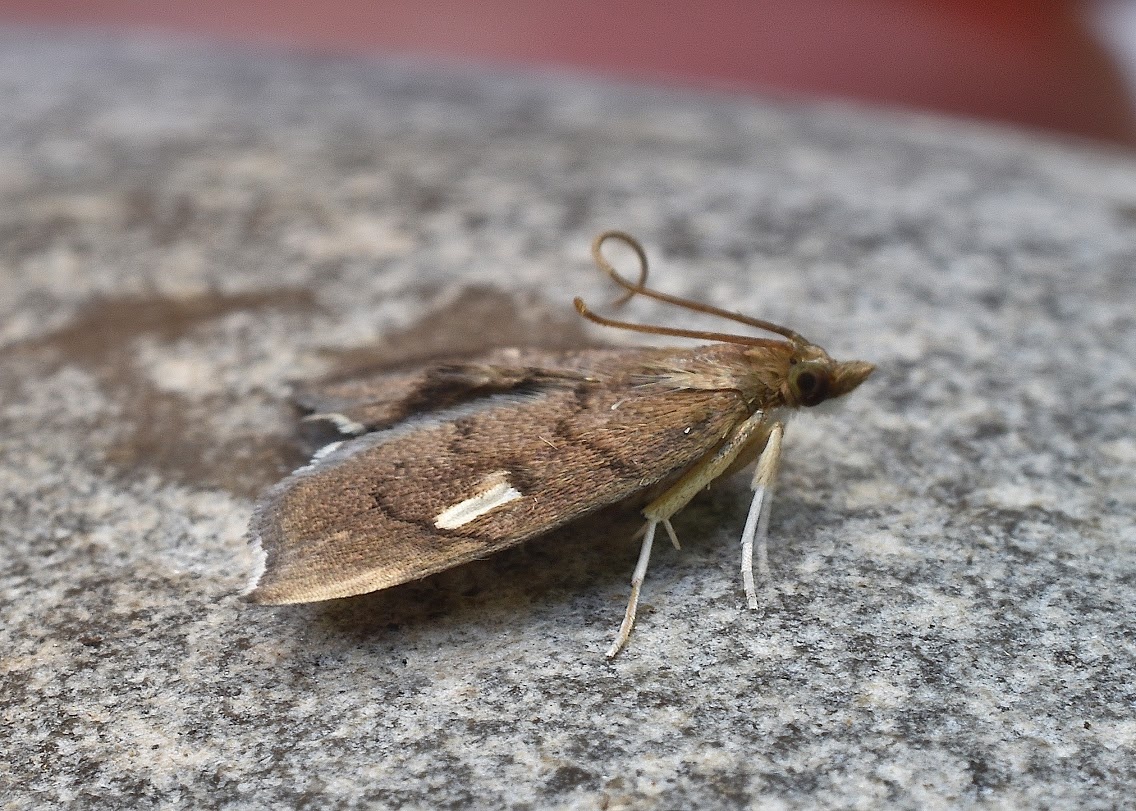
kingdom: Animalia
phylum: Arthropoda
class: Insecta
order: Lepidoptera
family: Crambidae
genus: Perispasta
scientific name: Perispasta caeculalis
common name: Titian peale's moth
